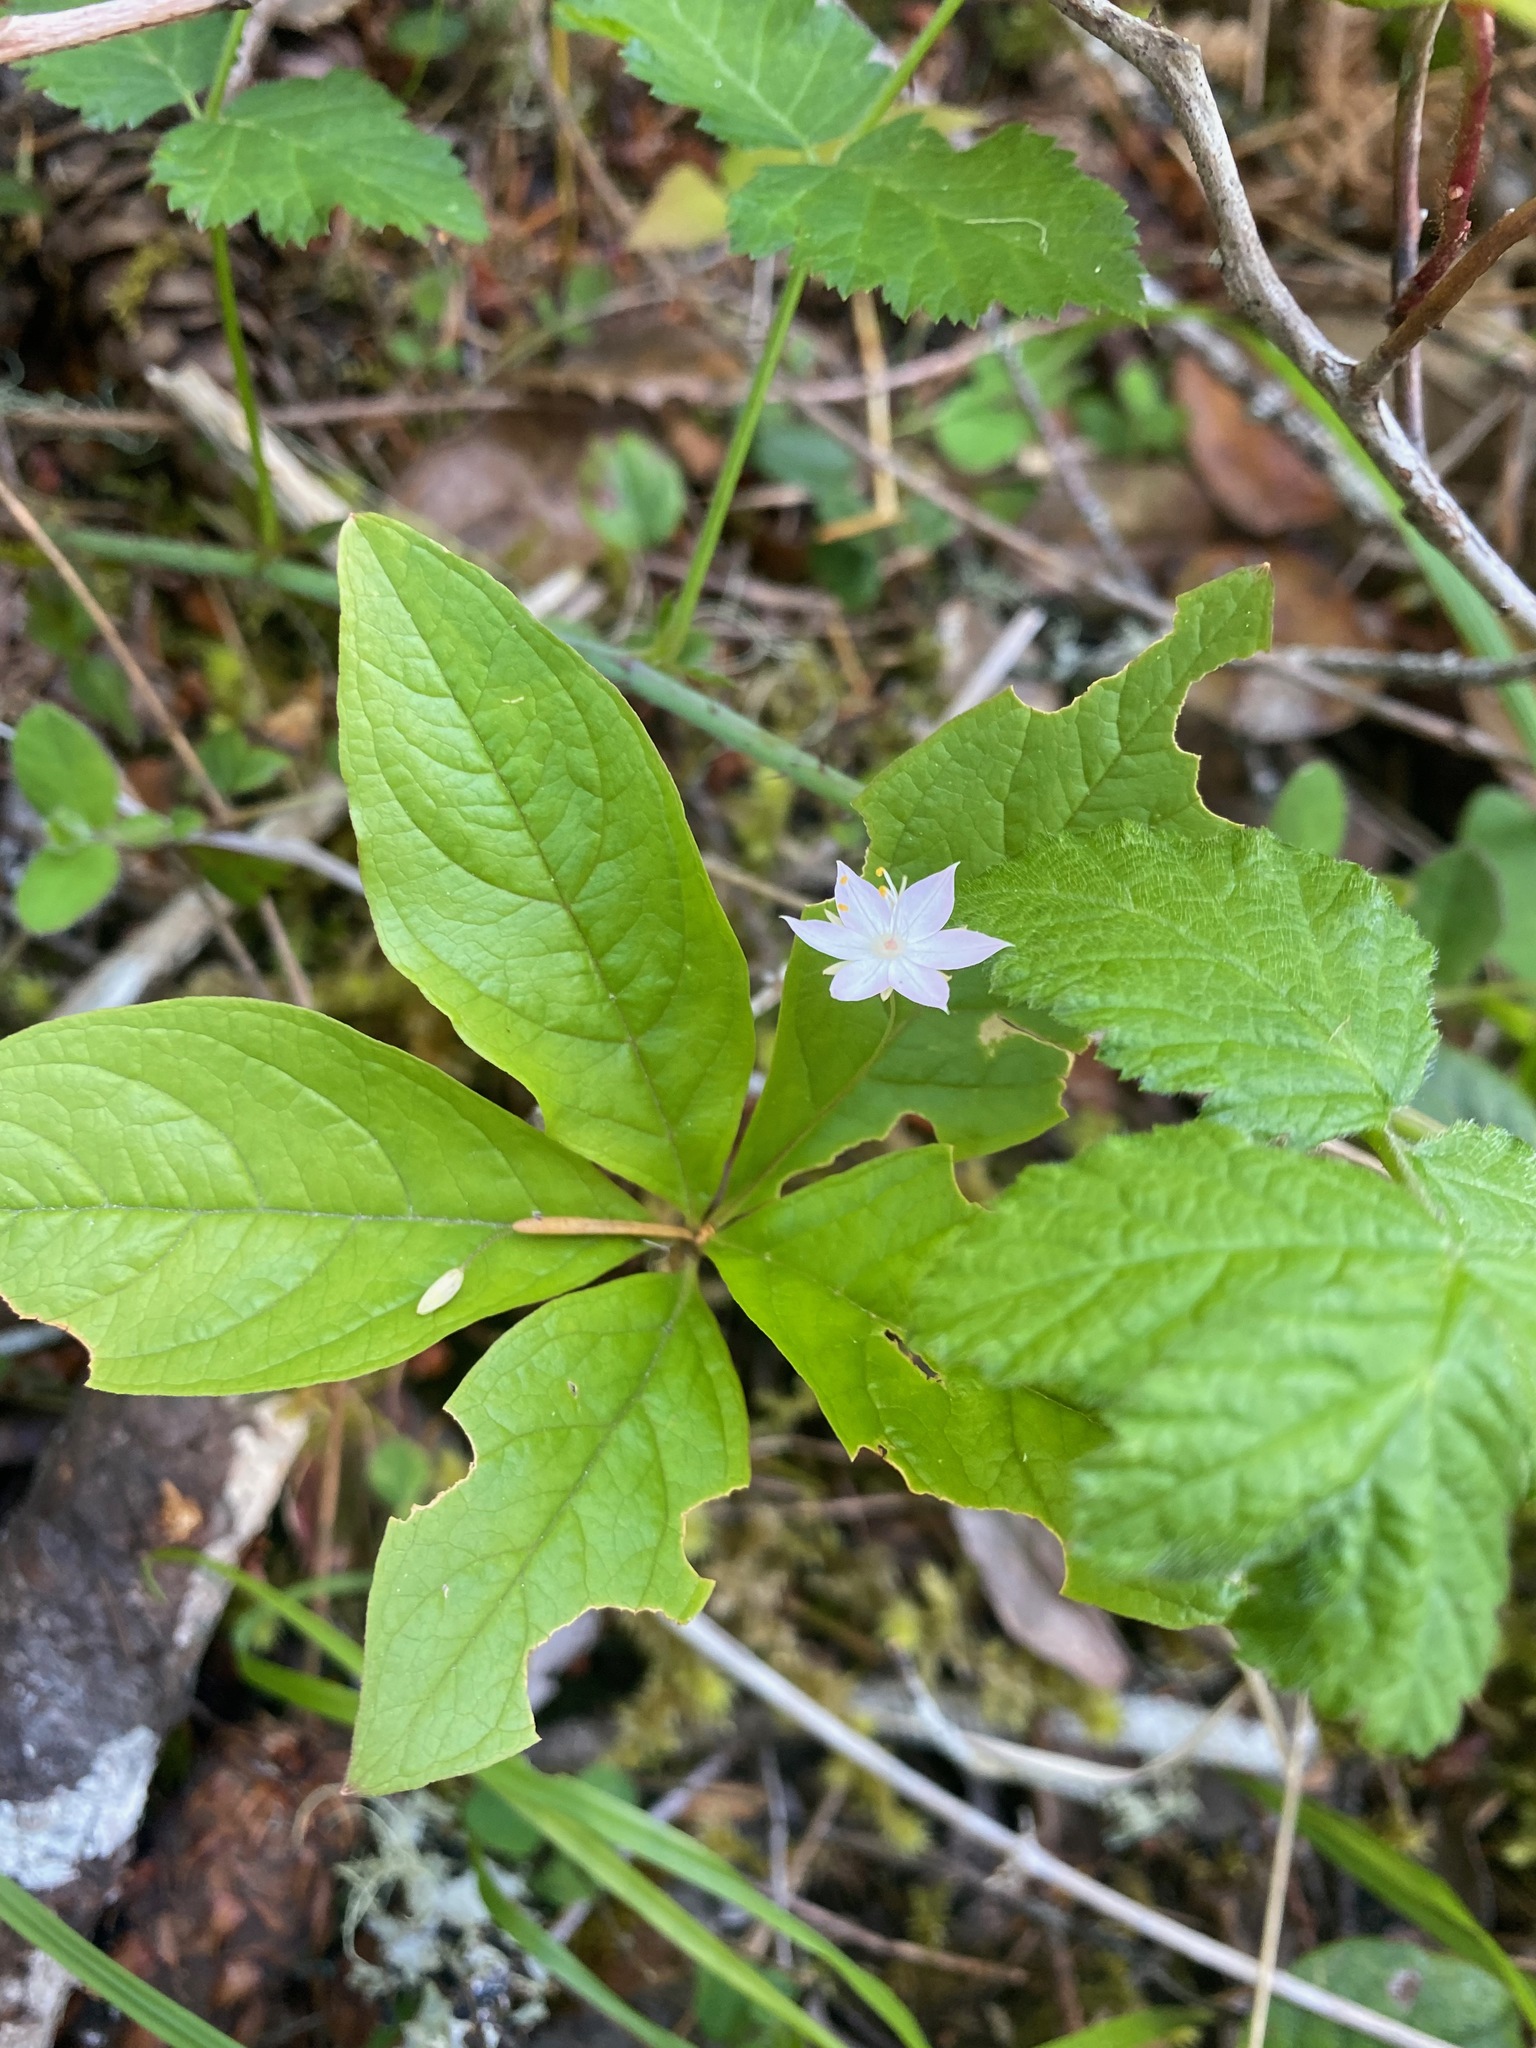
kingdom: Plantae
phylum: Tracheophyta
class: Magnoliopsida
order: Ericales
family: Primulaceae
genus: Lysimachia
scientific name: Lysimachia latifolia
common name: Pacific starflower
